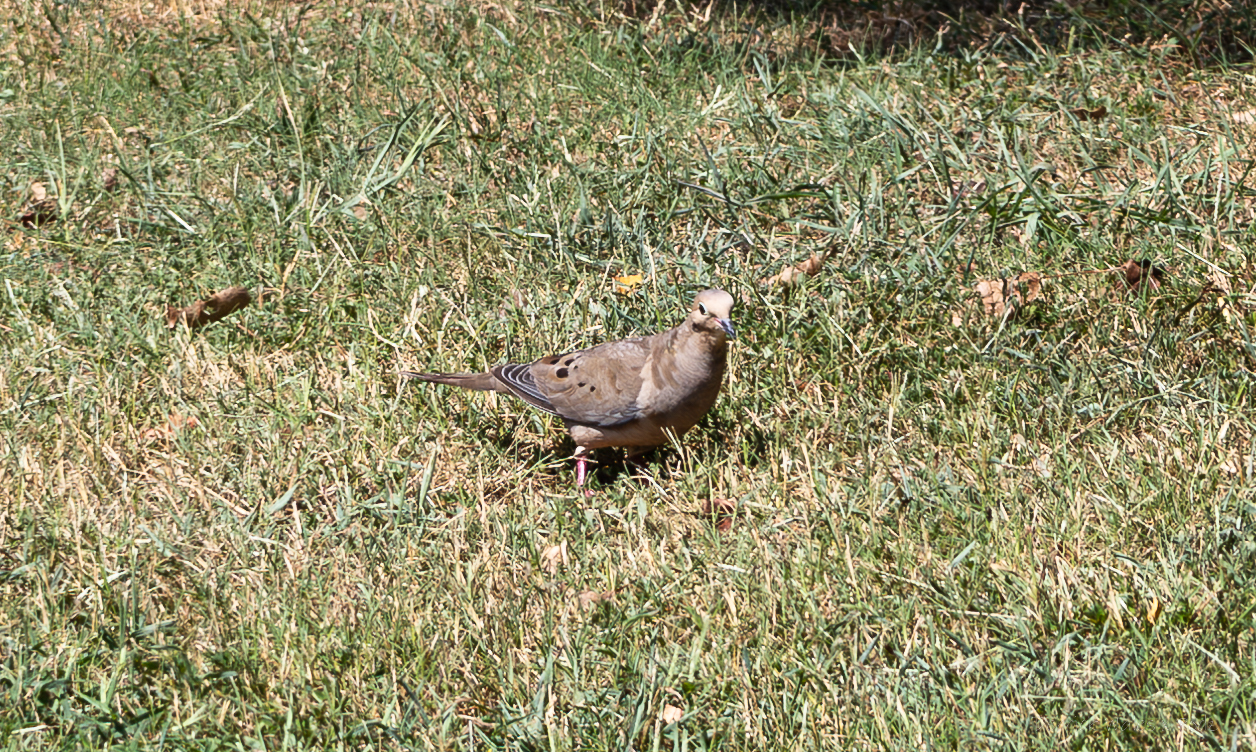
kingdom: Animalia
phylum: Chordata
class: Aves
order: Columbiformes
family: Columbidae
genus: Zenaida
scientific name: Zenaida macroura
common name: Mourning dove
